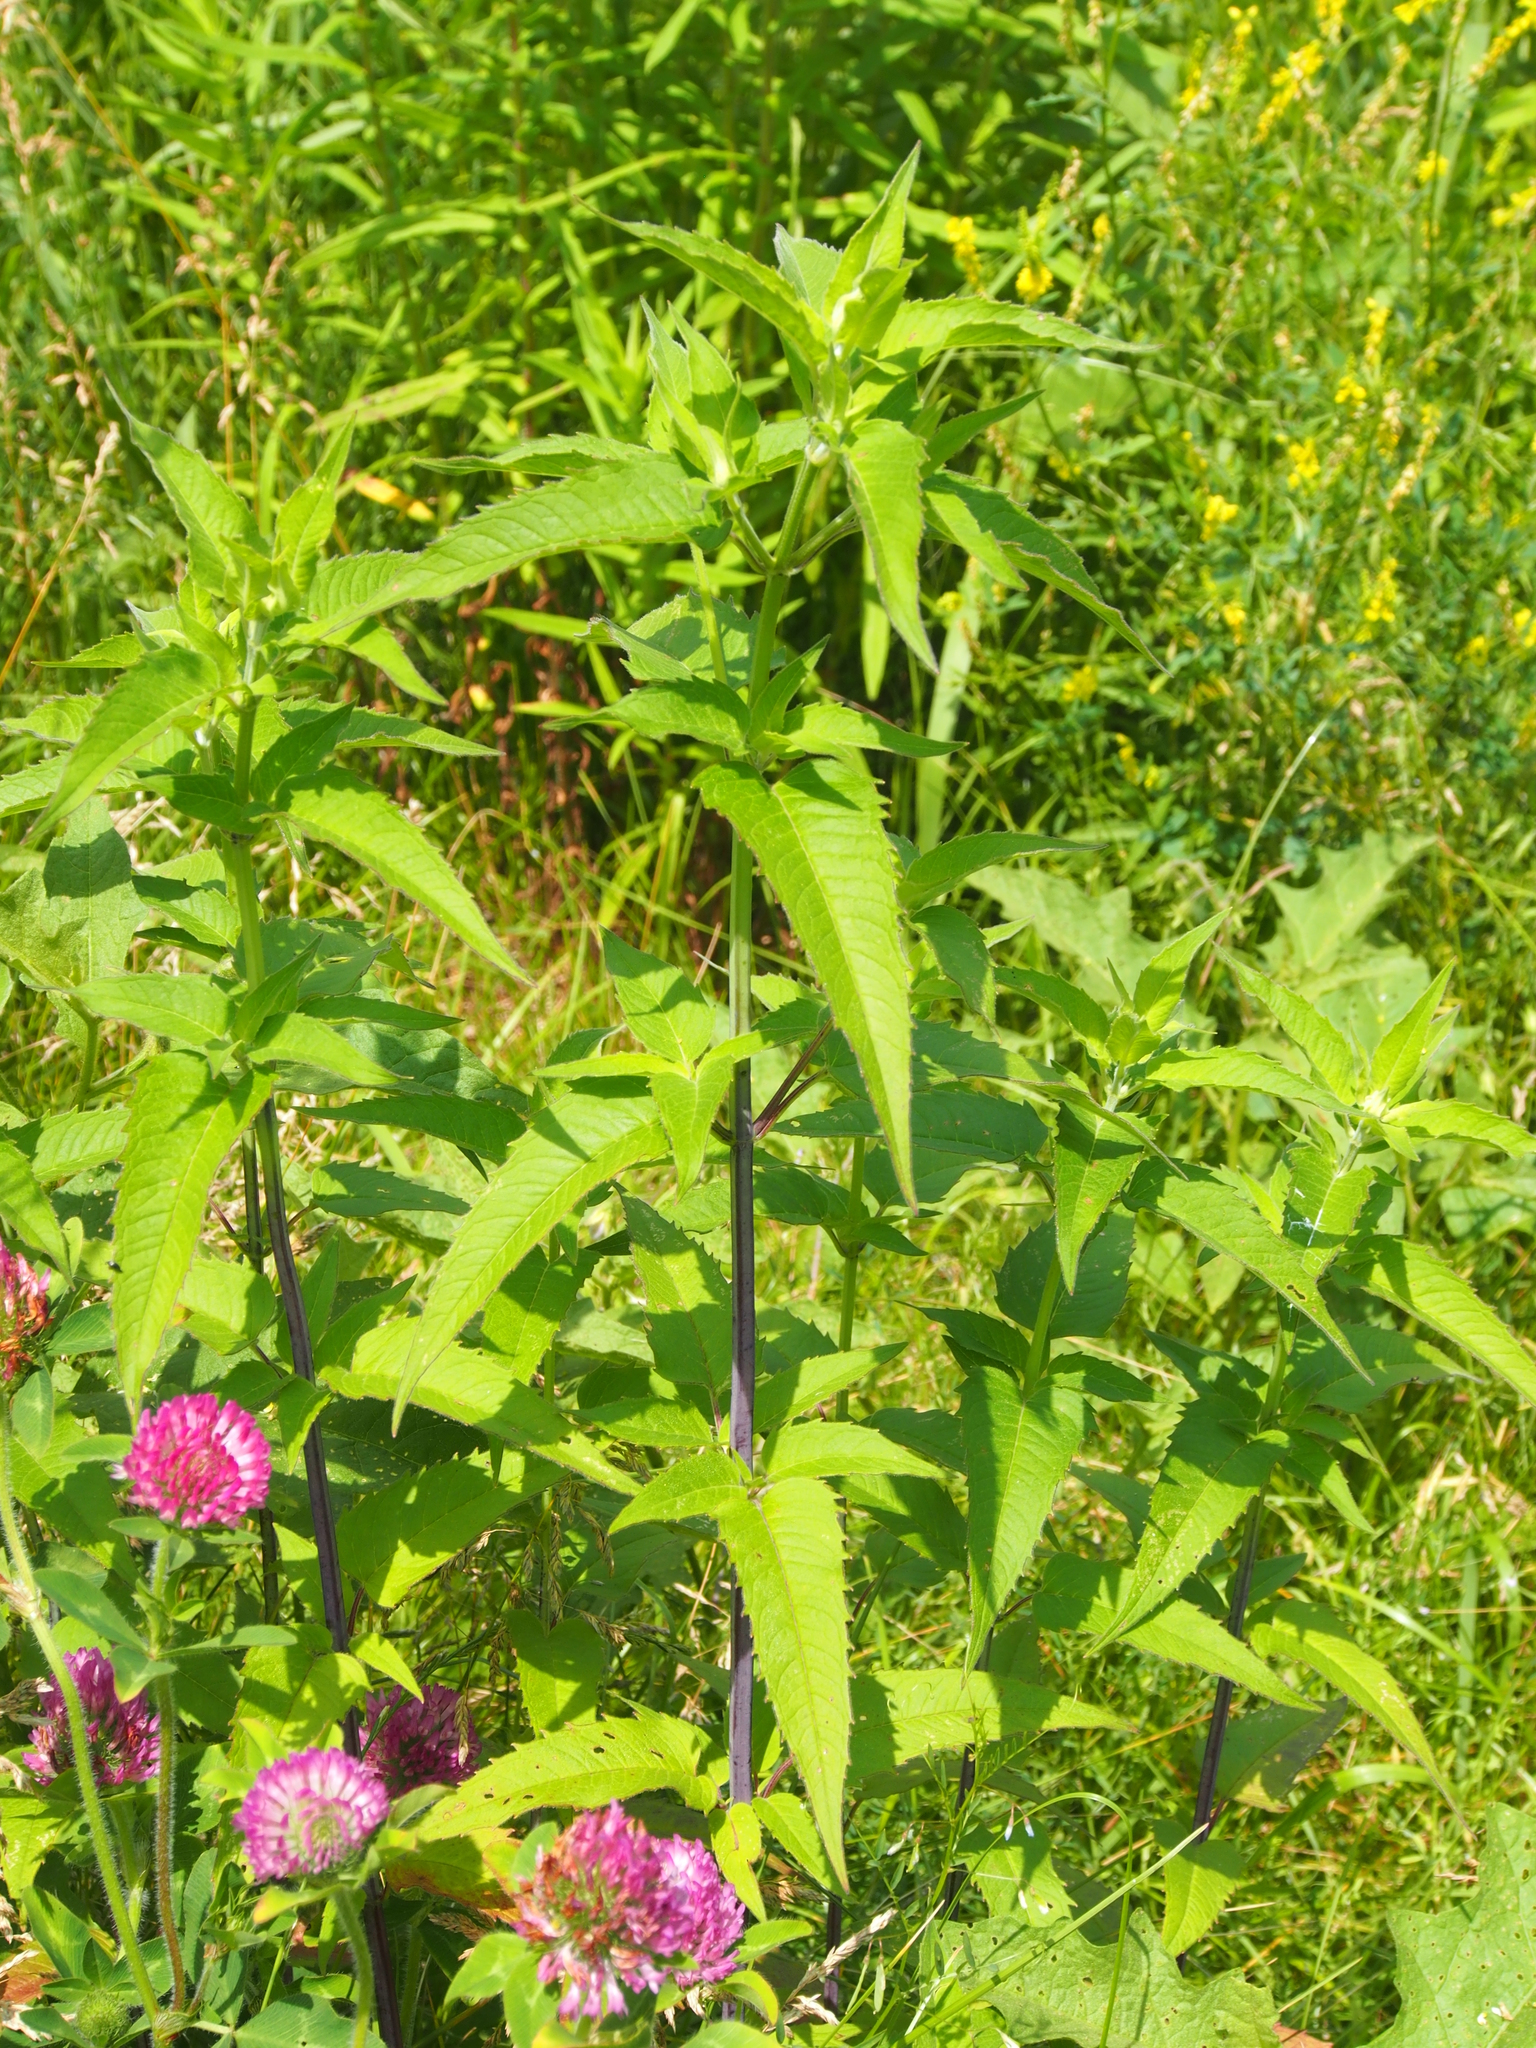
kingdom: Plantae
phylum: Tracheophyta
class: Magnoliopsida
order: Lamiales
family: Lamiaceae
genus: Monarda
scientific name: Monarda fistulosa
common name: Purple beebalm
